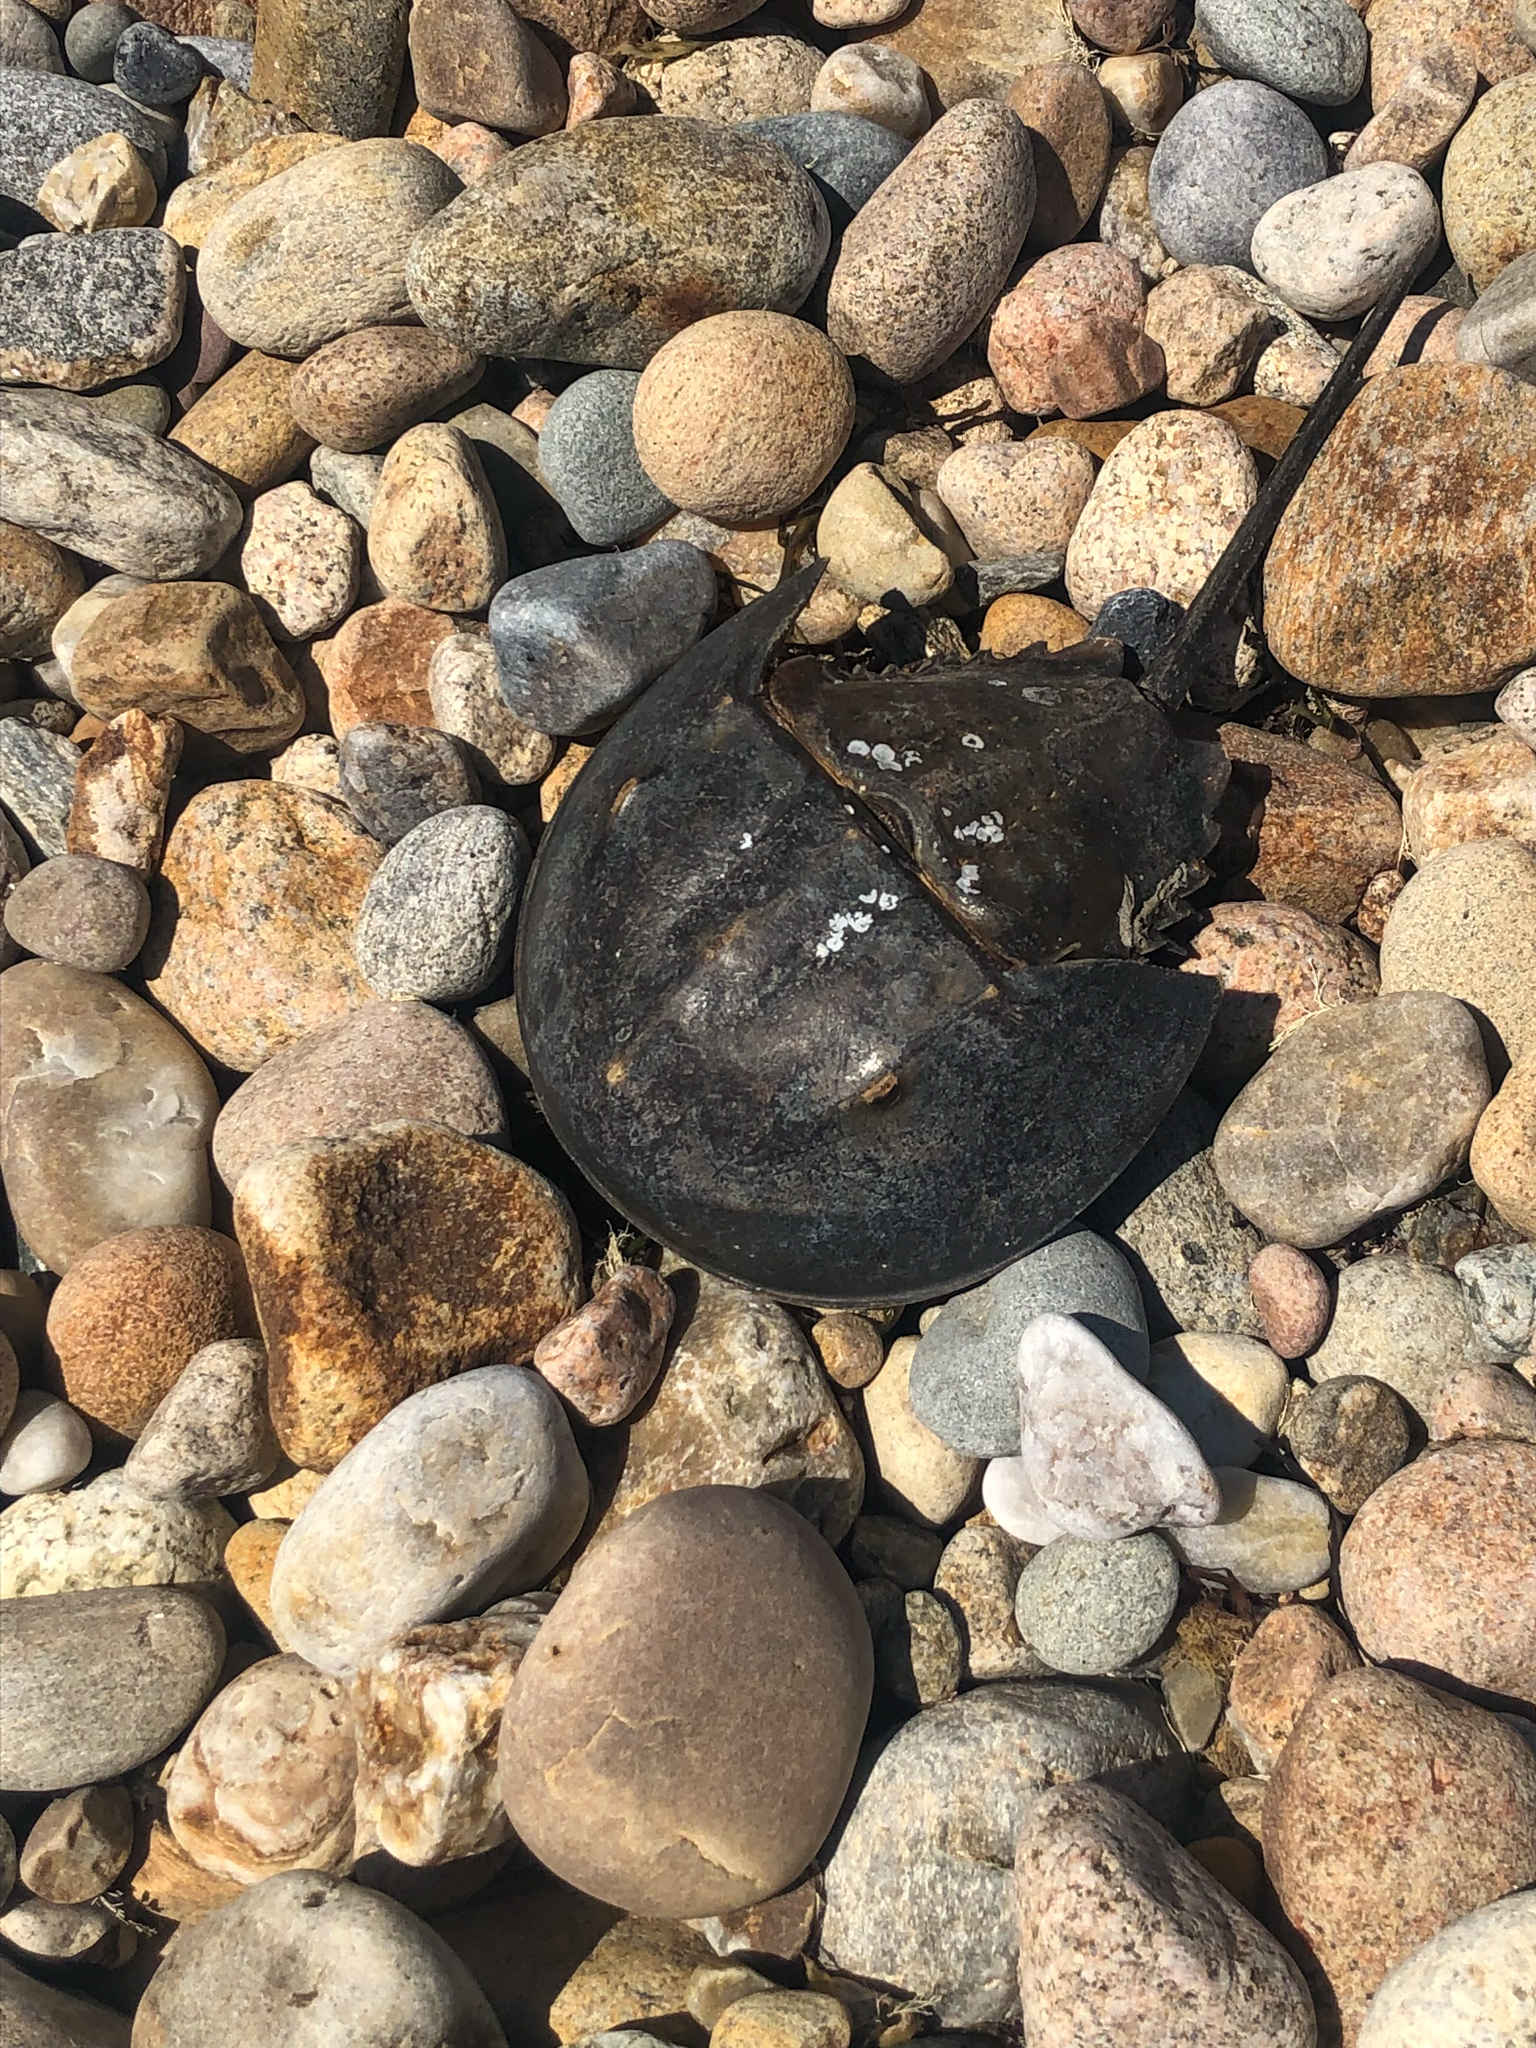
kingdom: Animalia
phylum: Arthropoda
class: Merostomata
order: Xiphosurida
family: Limulidae
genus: Limulus
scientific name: Limulus polyphemus
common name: Horseshoe crab
